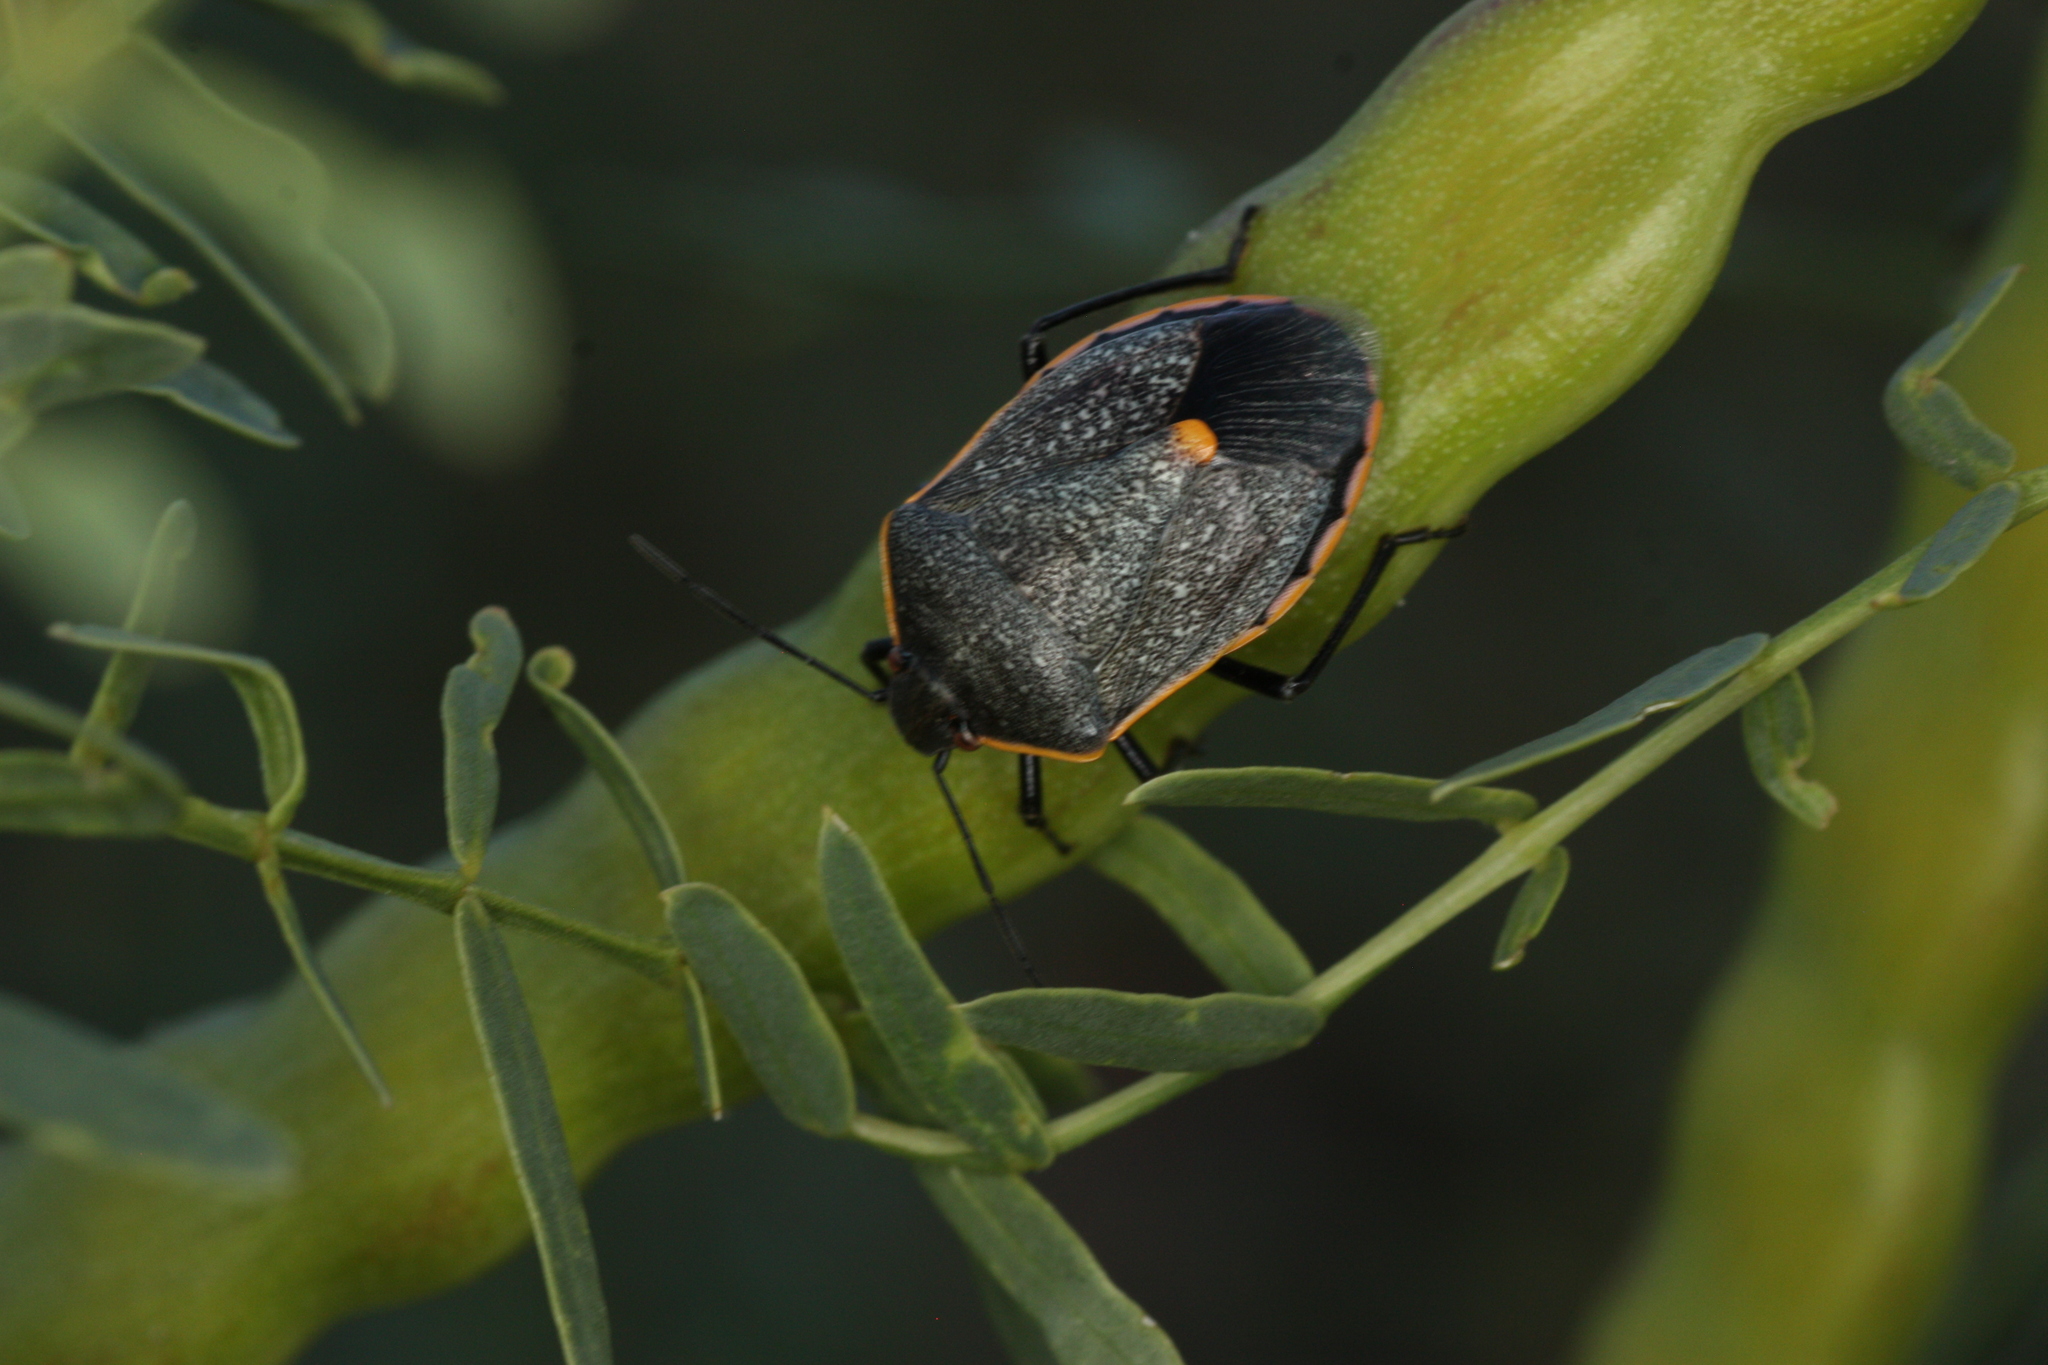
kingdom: Animalia
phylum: Arthropoda
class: Insecta
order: Hemiptera
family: Pentatomidae
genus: Chlorochroa
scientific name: Chlorochroa ligata
